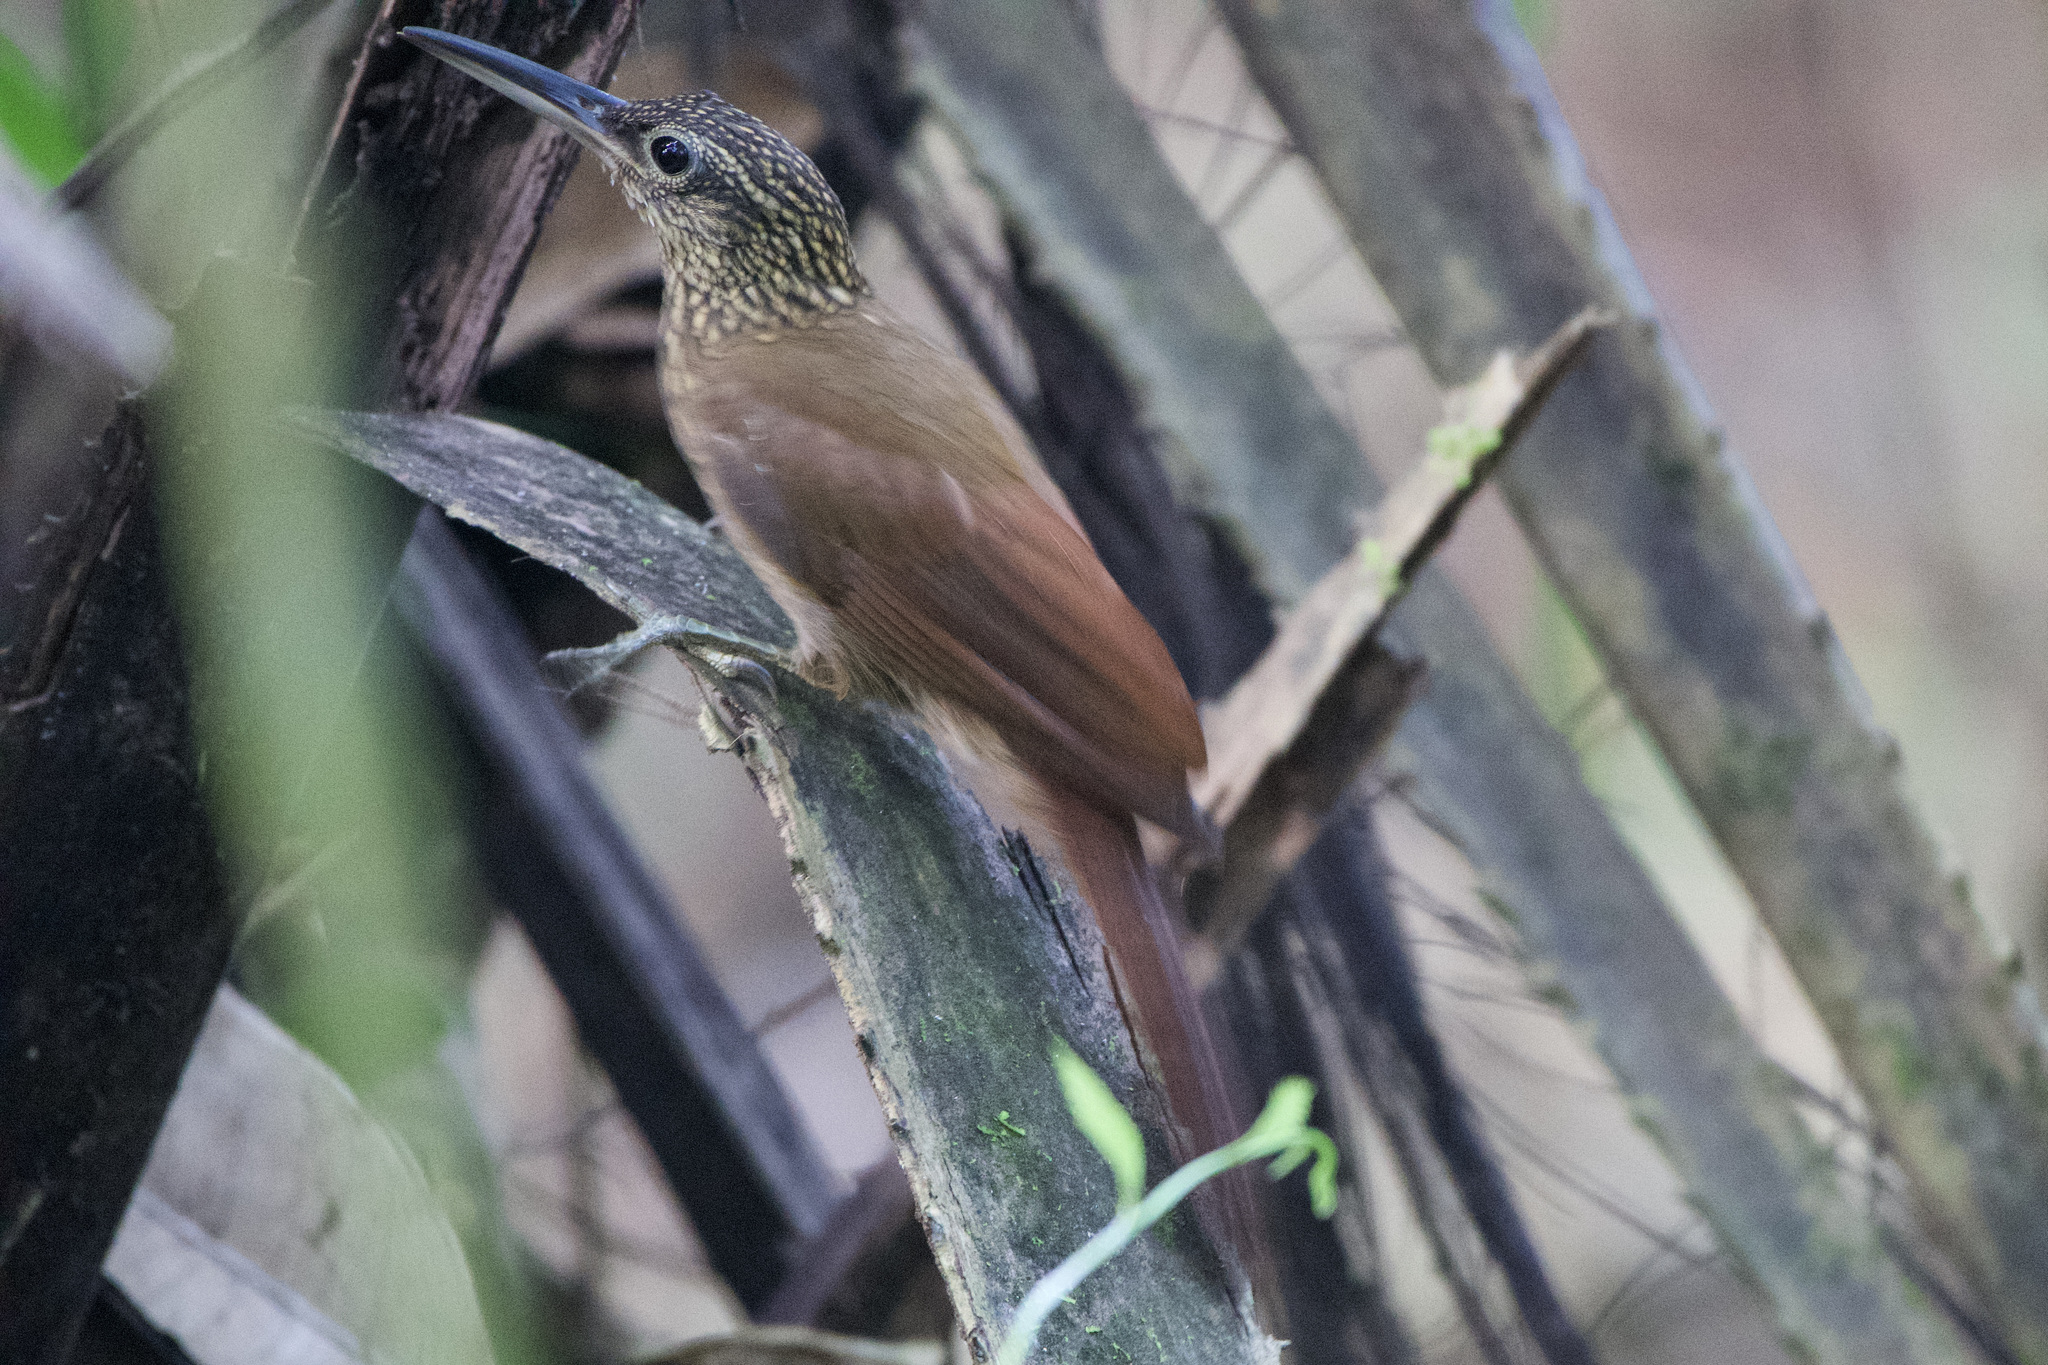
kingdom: Animalia
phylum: Chordata
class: Aves
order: Passeriformes
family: Furnariidae
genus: Xiphorhynchus
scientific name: Xiphorhynchus susurrans
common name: Cocoa woodcreeper
